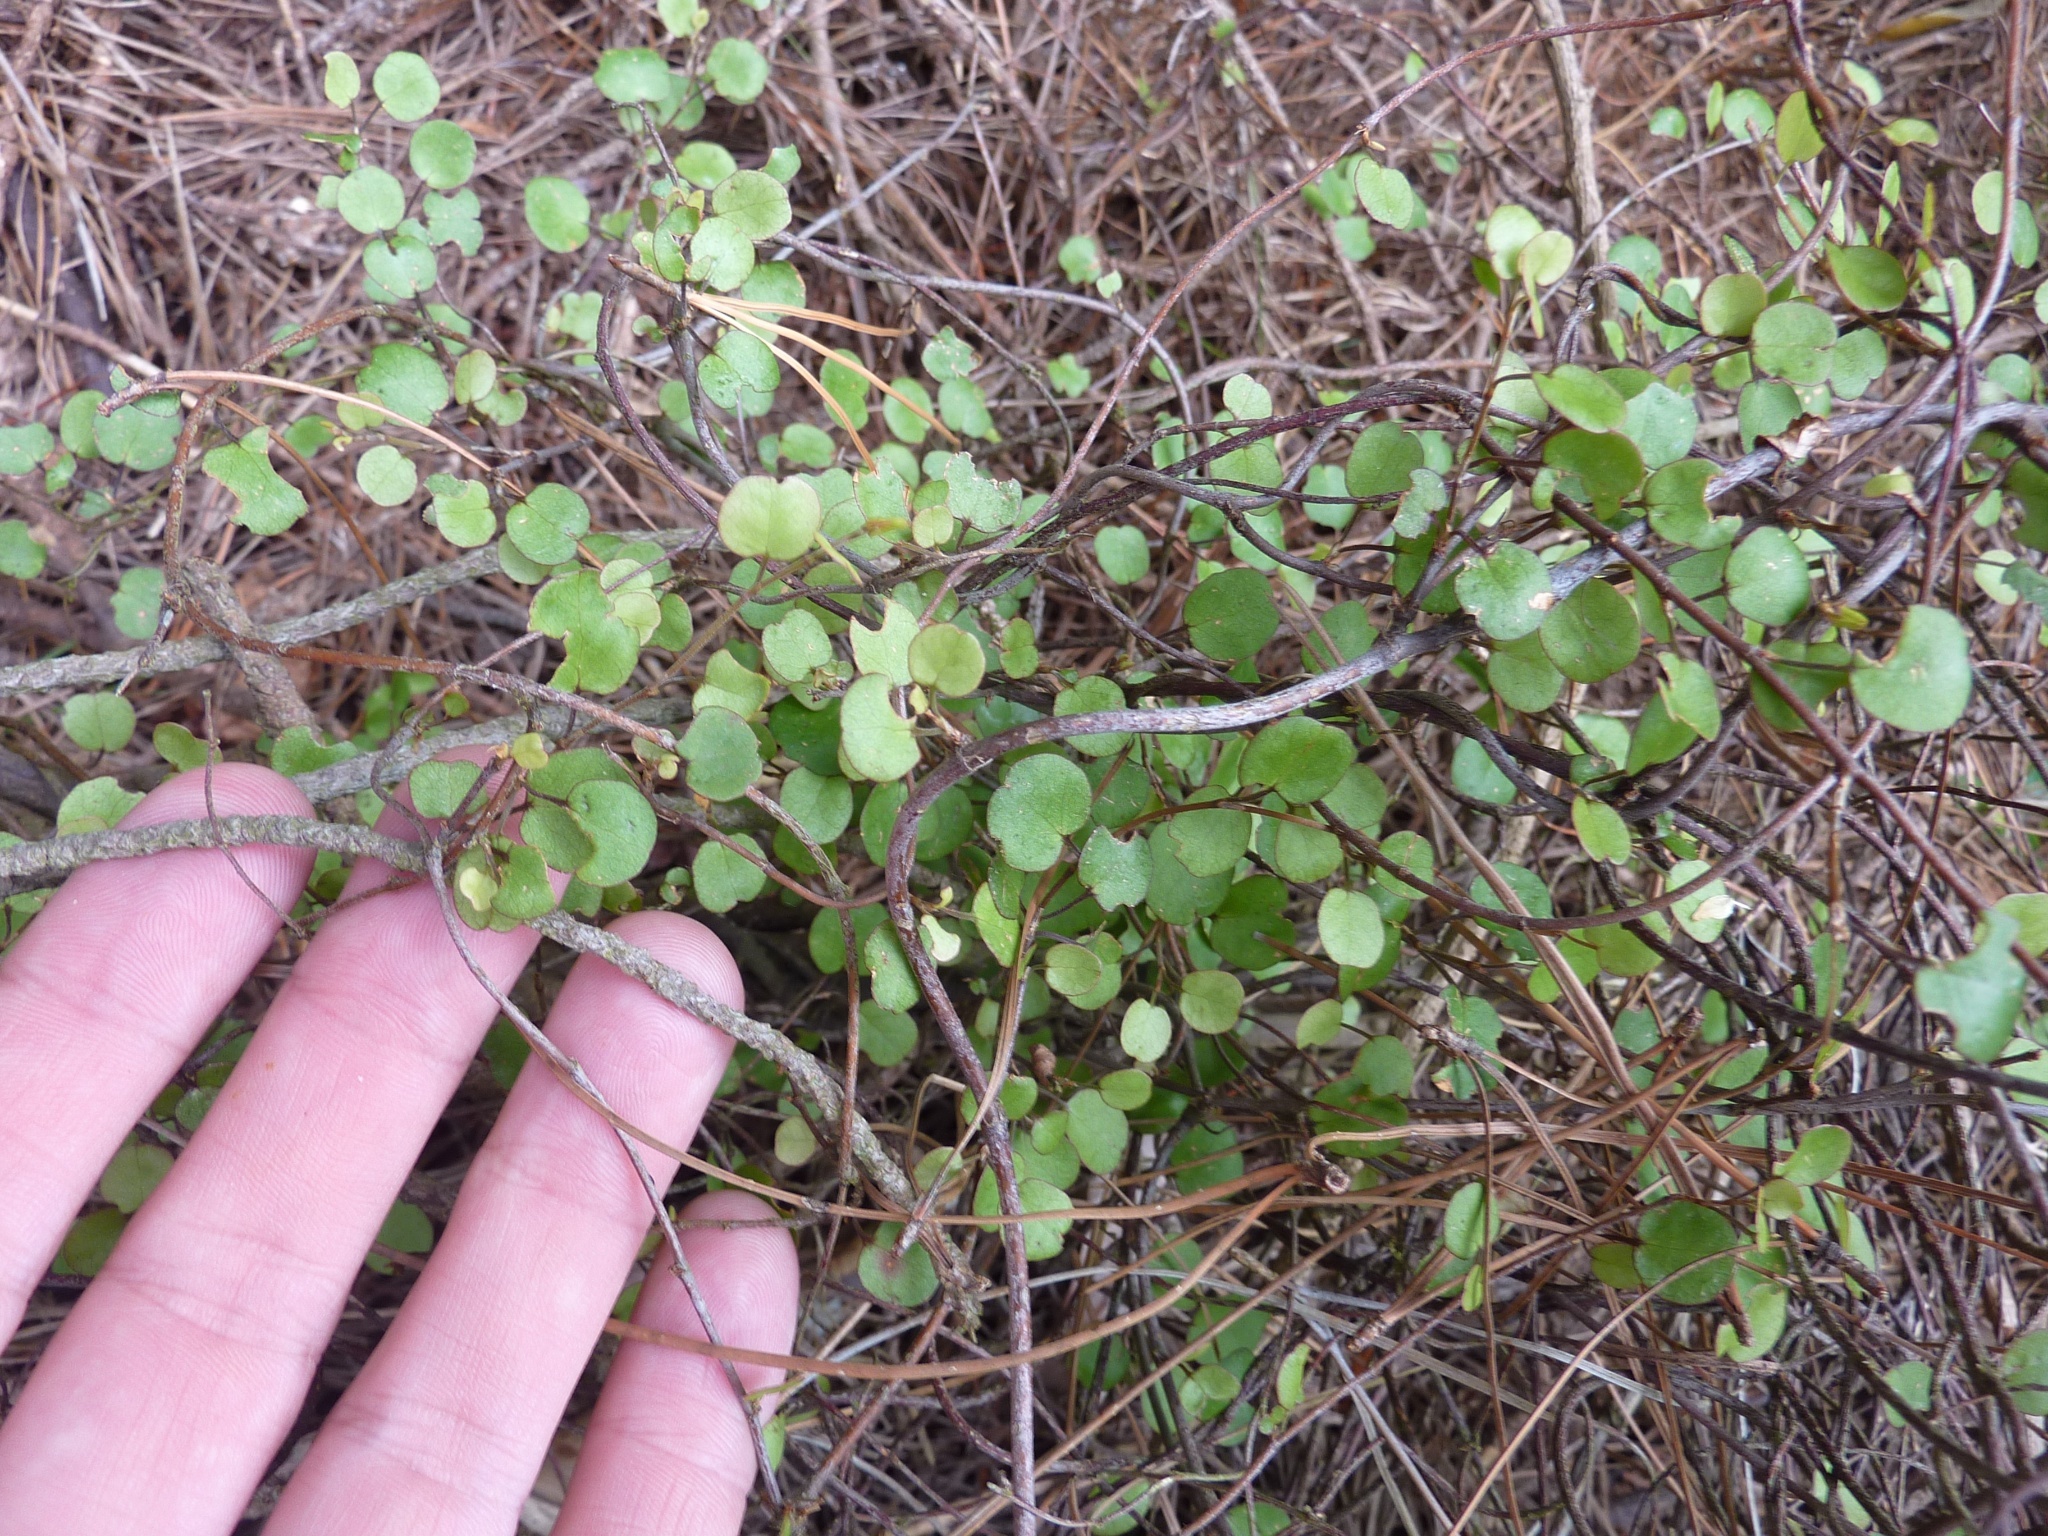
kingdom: Plantae
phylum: Tracheophyta
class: Magnoliopsida
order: Caryophyllales
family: Polygonaceae
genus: Muehlenbeckia
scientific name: Muehlenbeckia complexa
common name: Wireplant
